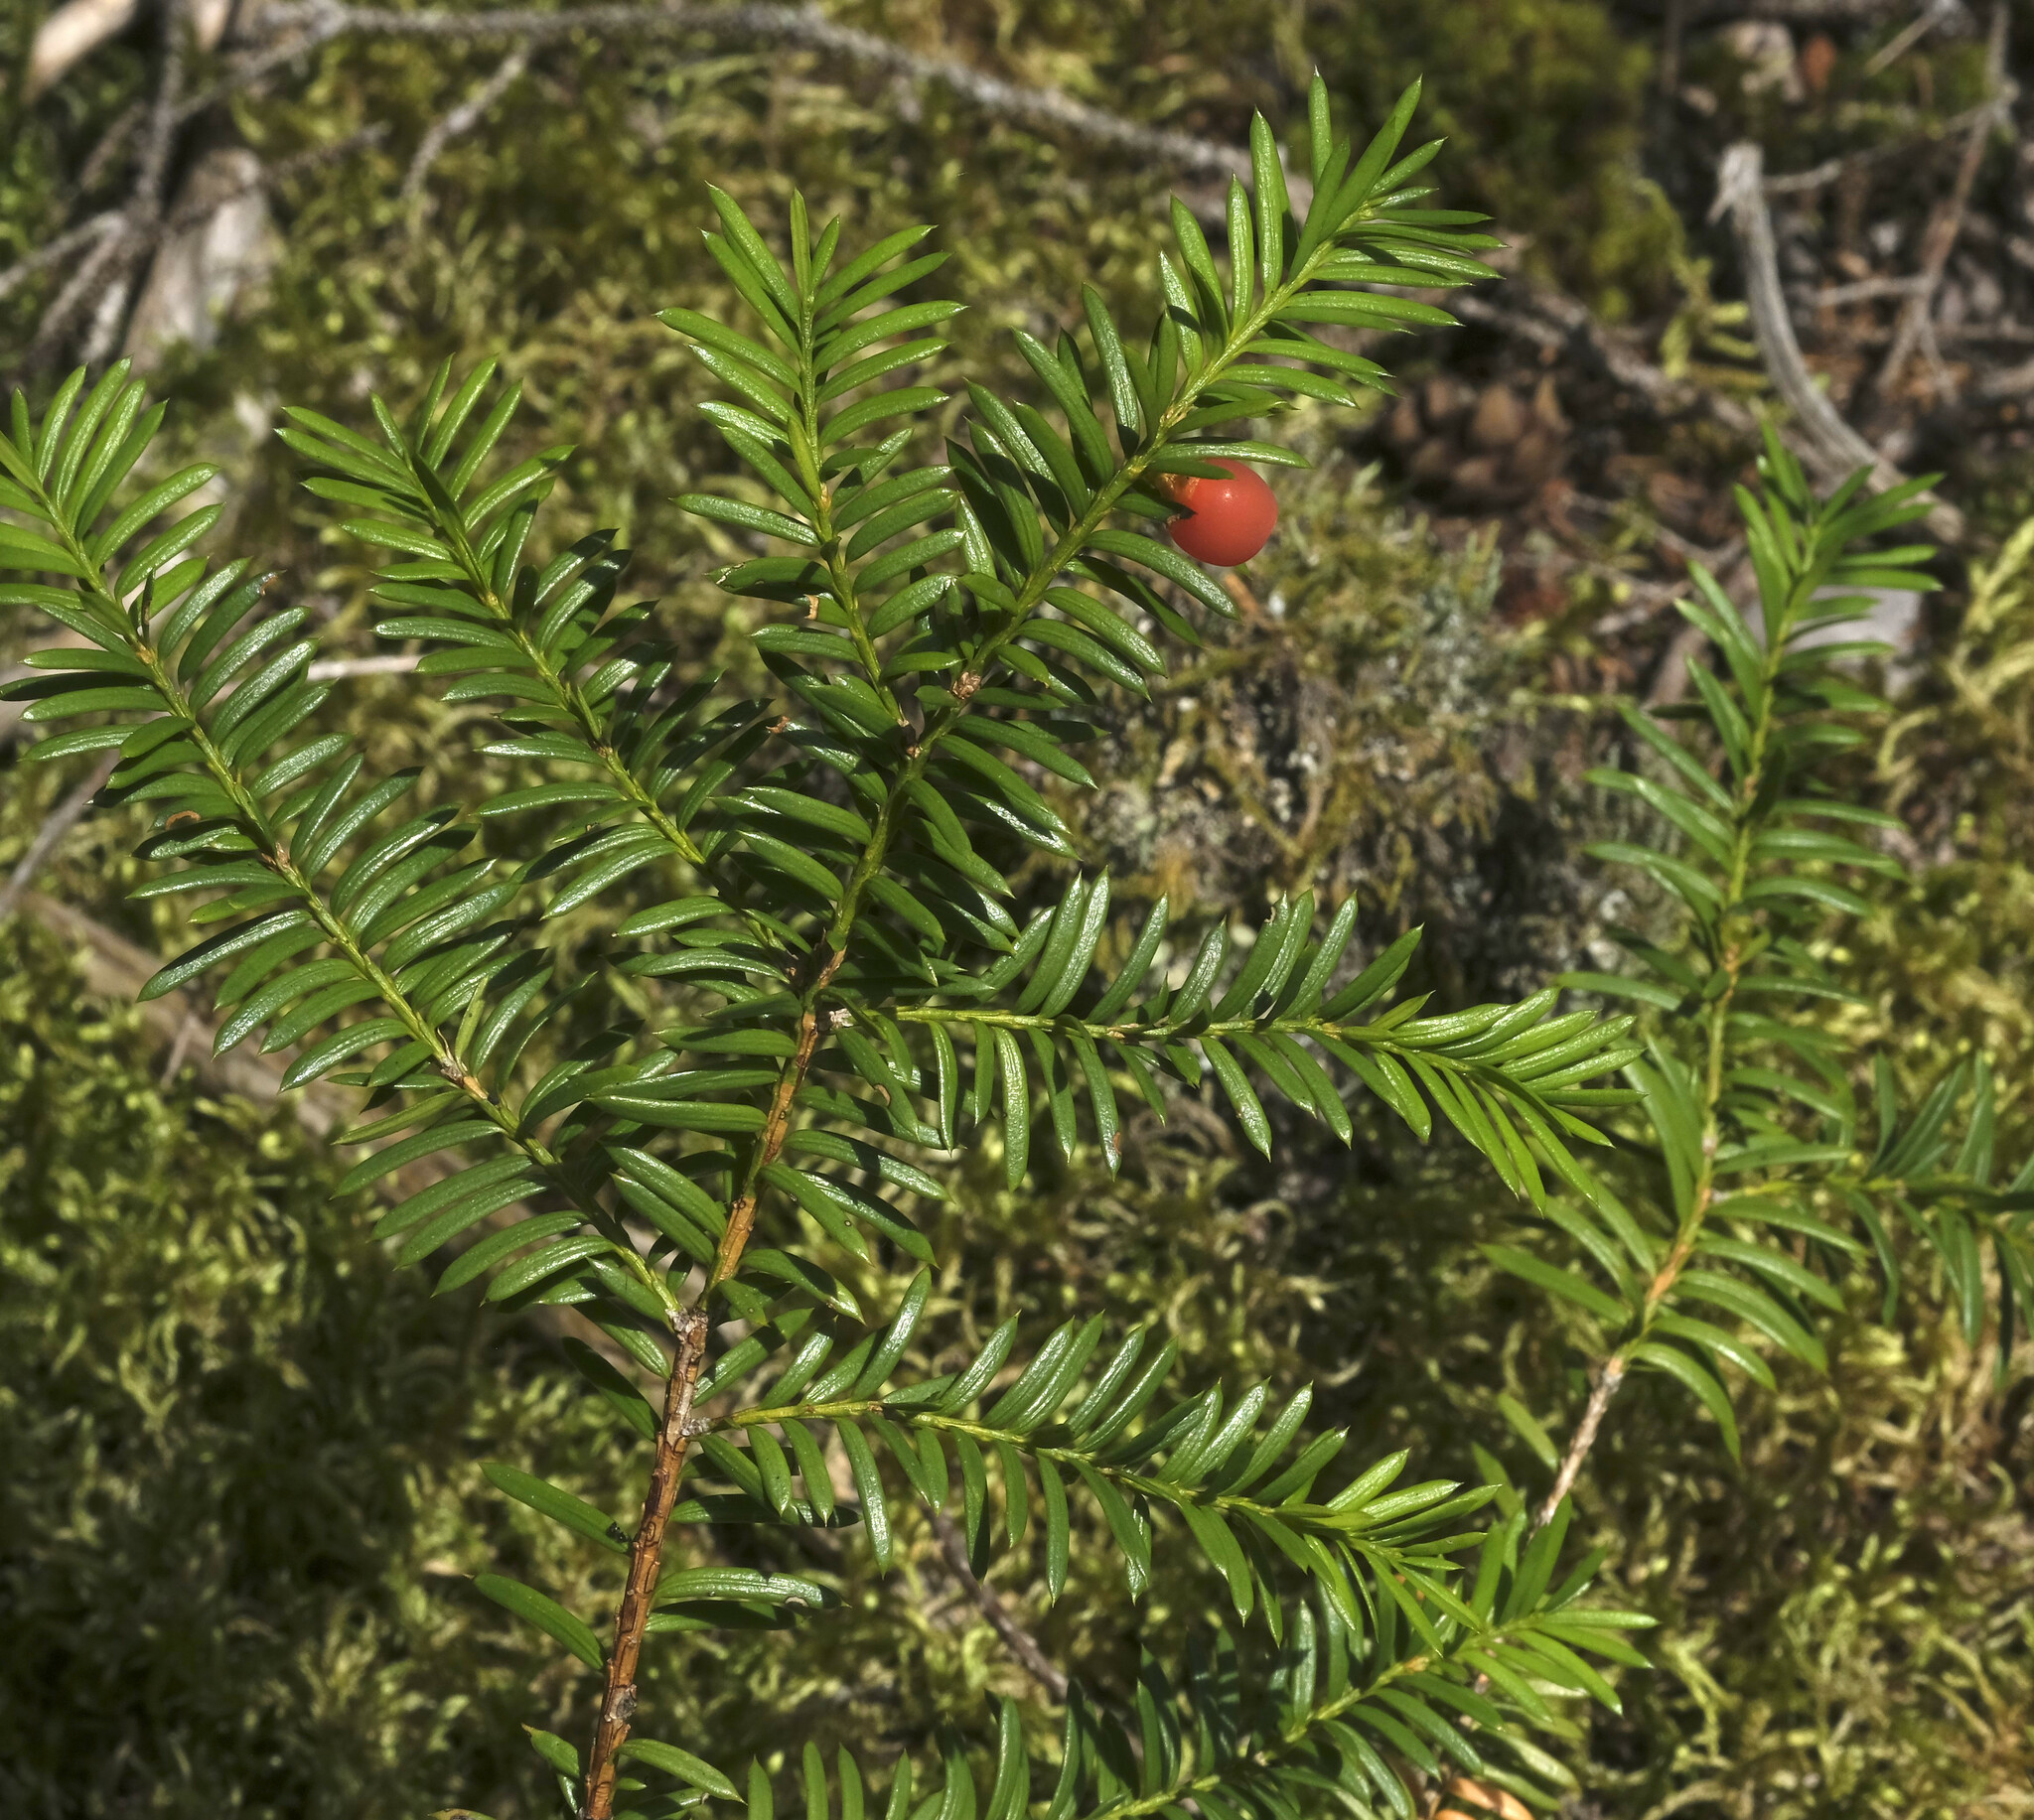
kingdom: Plantae
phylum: Tracheophyta
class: Pinopsida
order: Pinales
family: Taxaceae
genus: Taxus
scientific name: Taxus canadensis
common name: American yew
